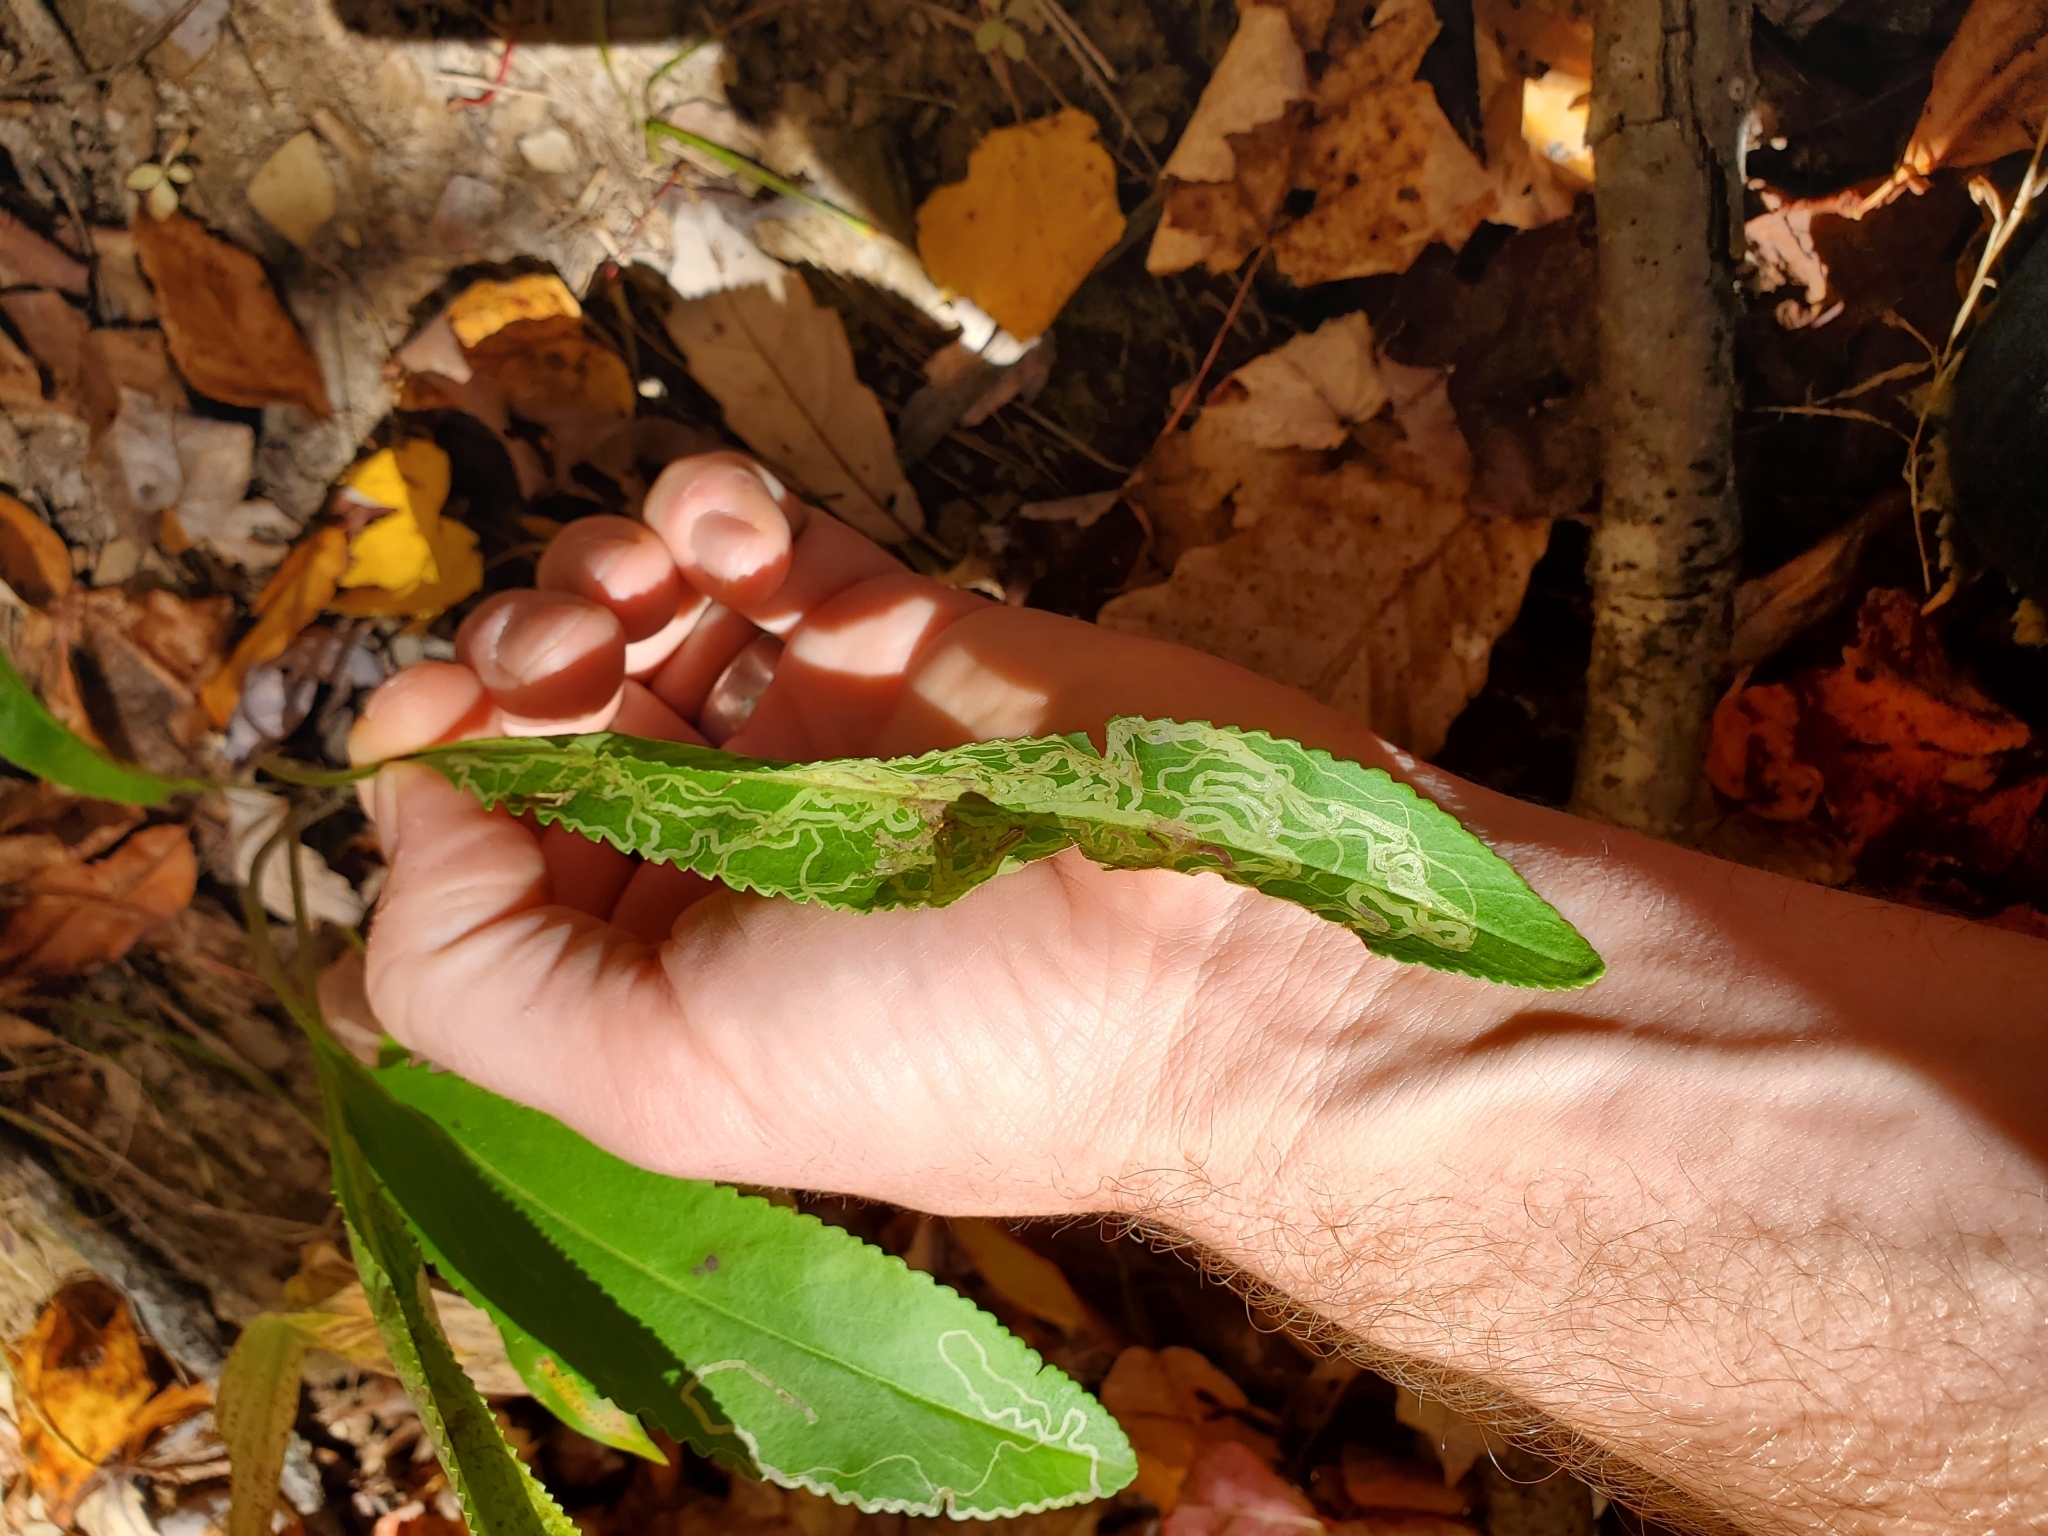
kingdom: Animalia
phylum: Arthropoda
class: Insecta
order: Lepidoptera
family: Gracillariidae
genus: Phyllocnistis
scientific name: Phyllocnistis insignis
